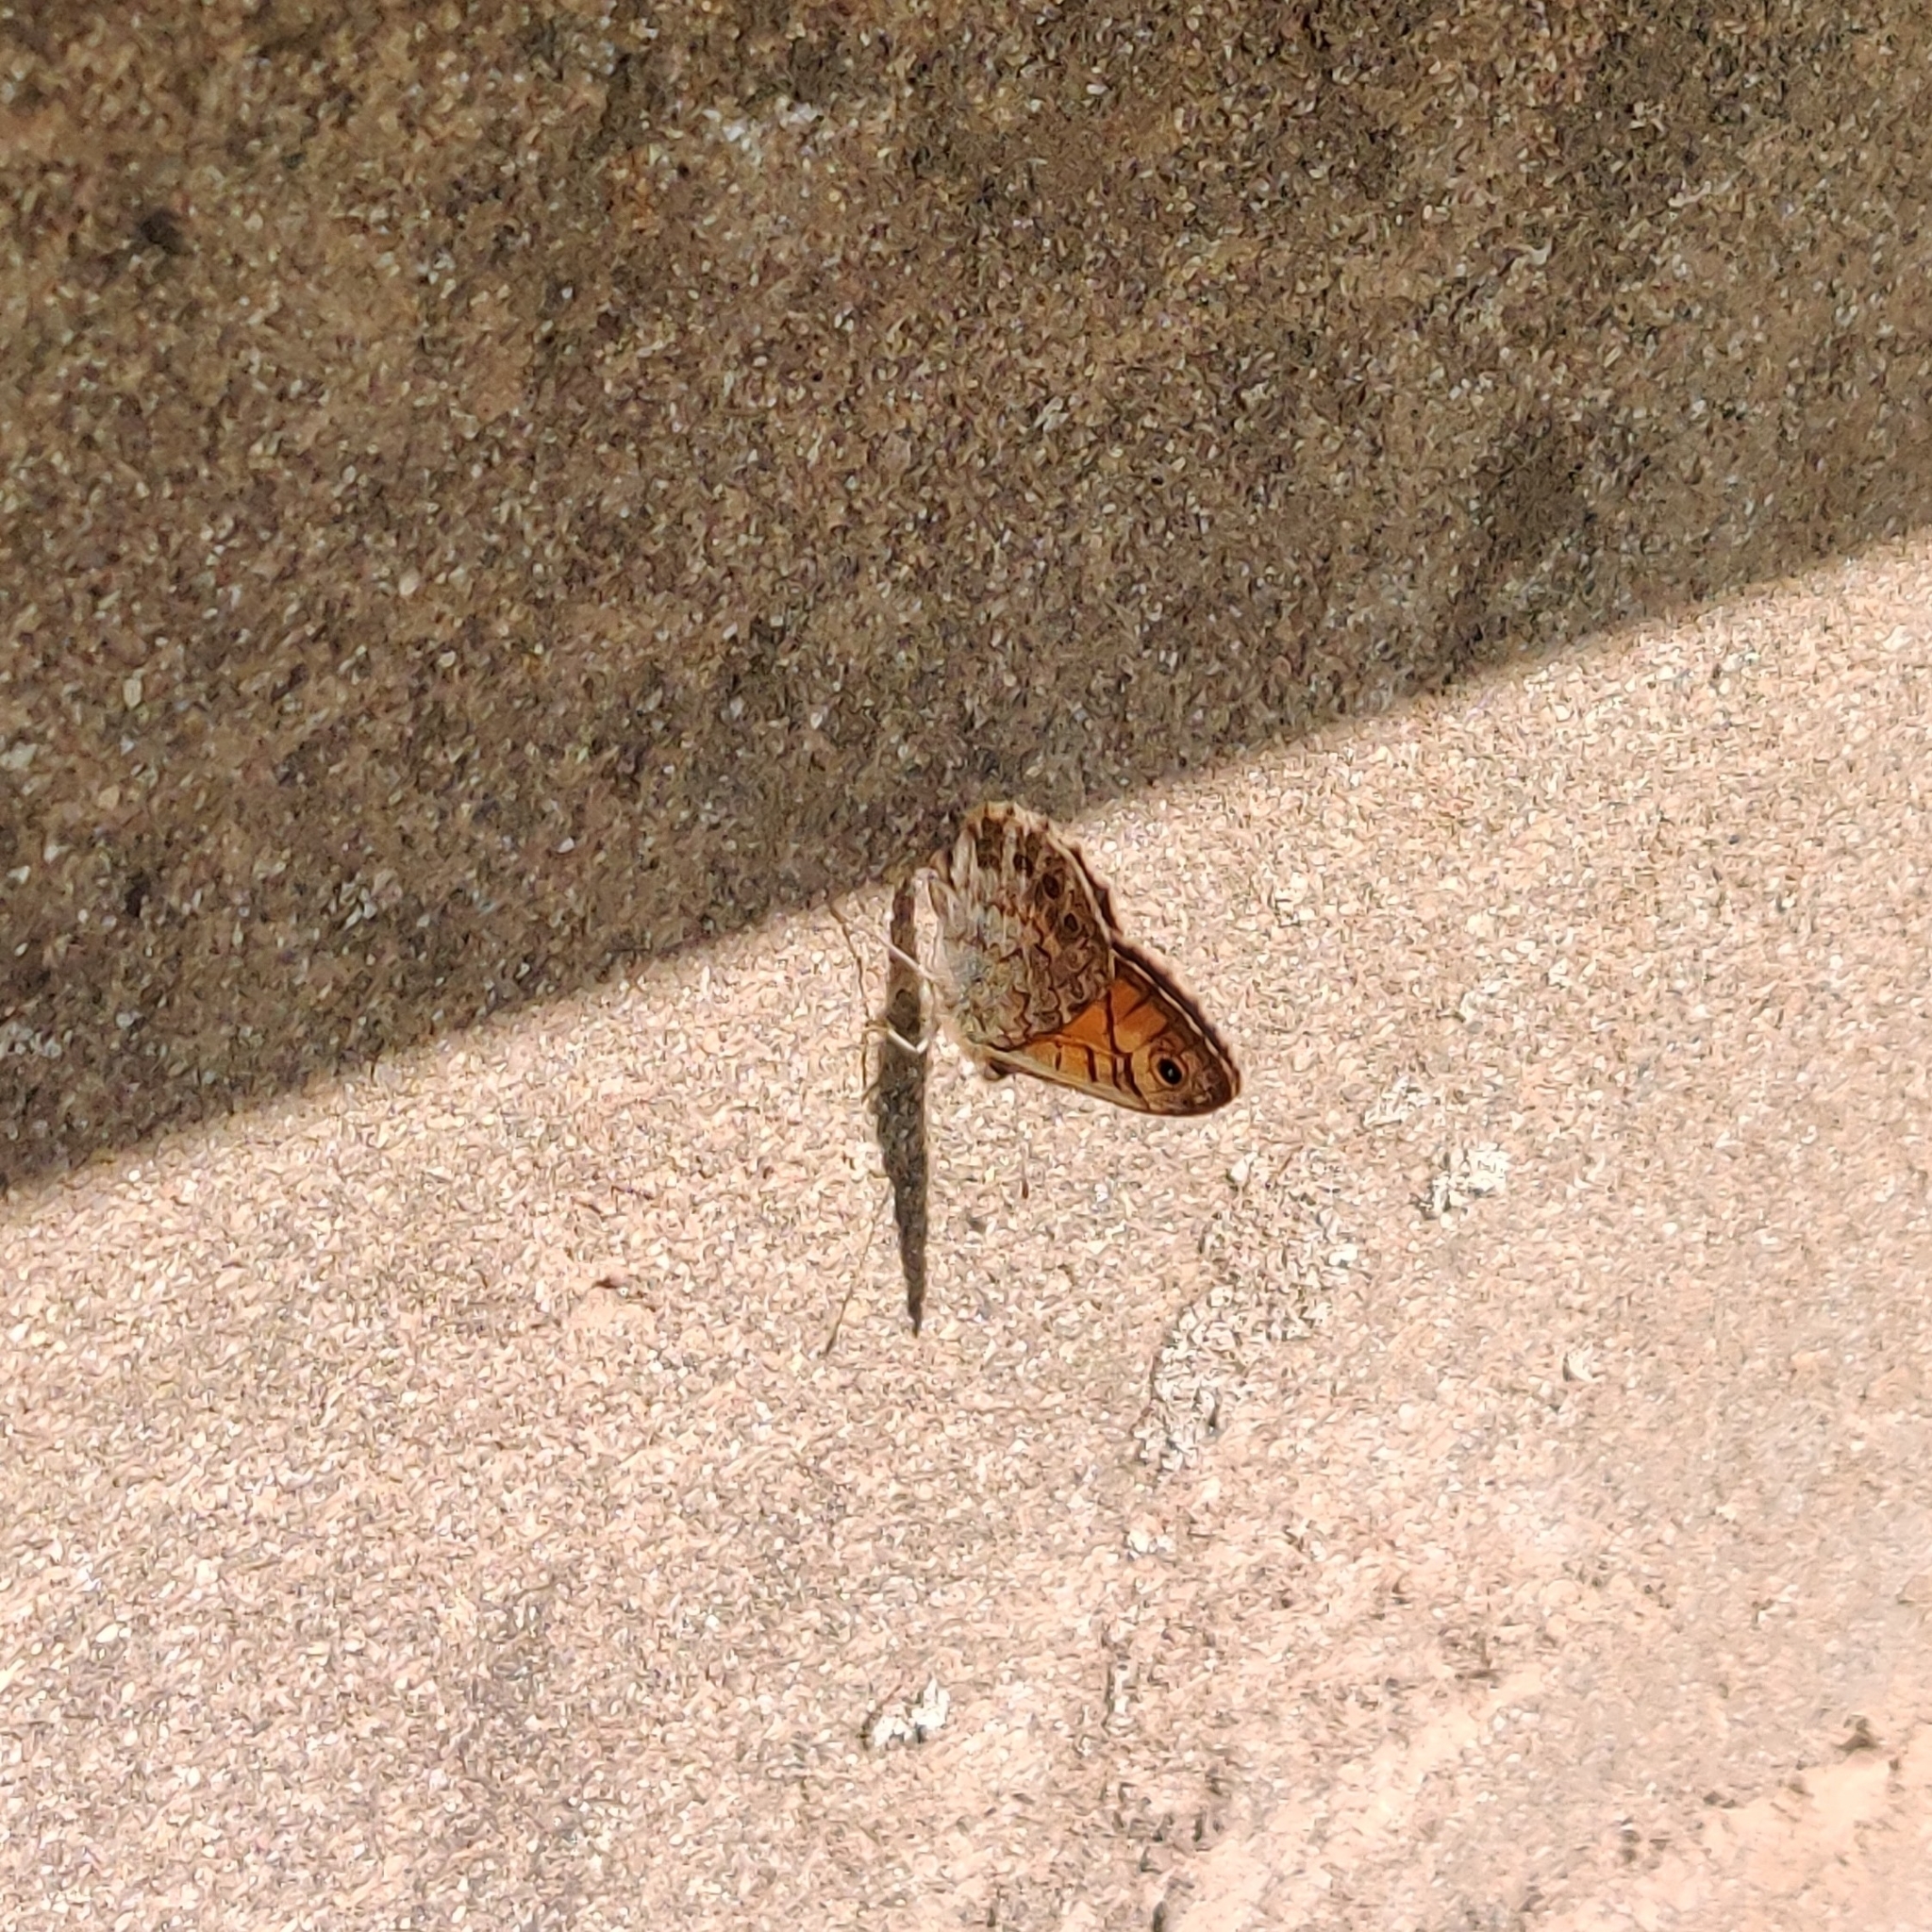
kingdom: Animalia
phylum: Arthropoda
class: Insecta
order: Lepidoptera
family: Nymphalidae
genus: Pararge
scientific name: Pararge Lasiommata megera
